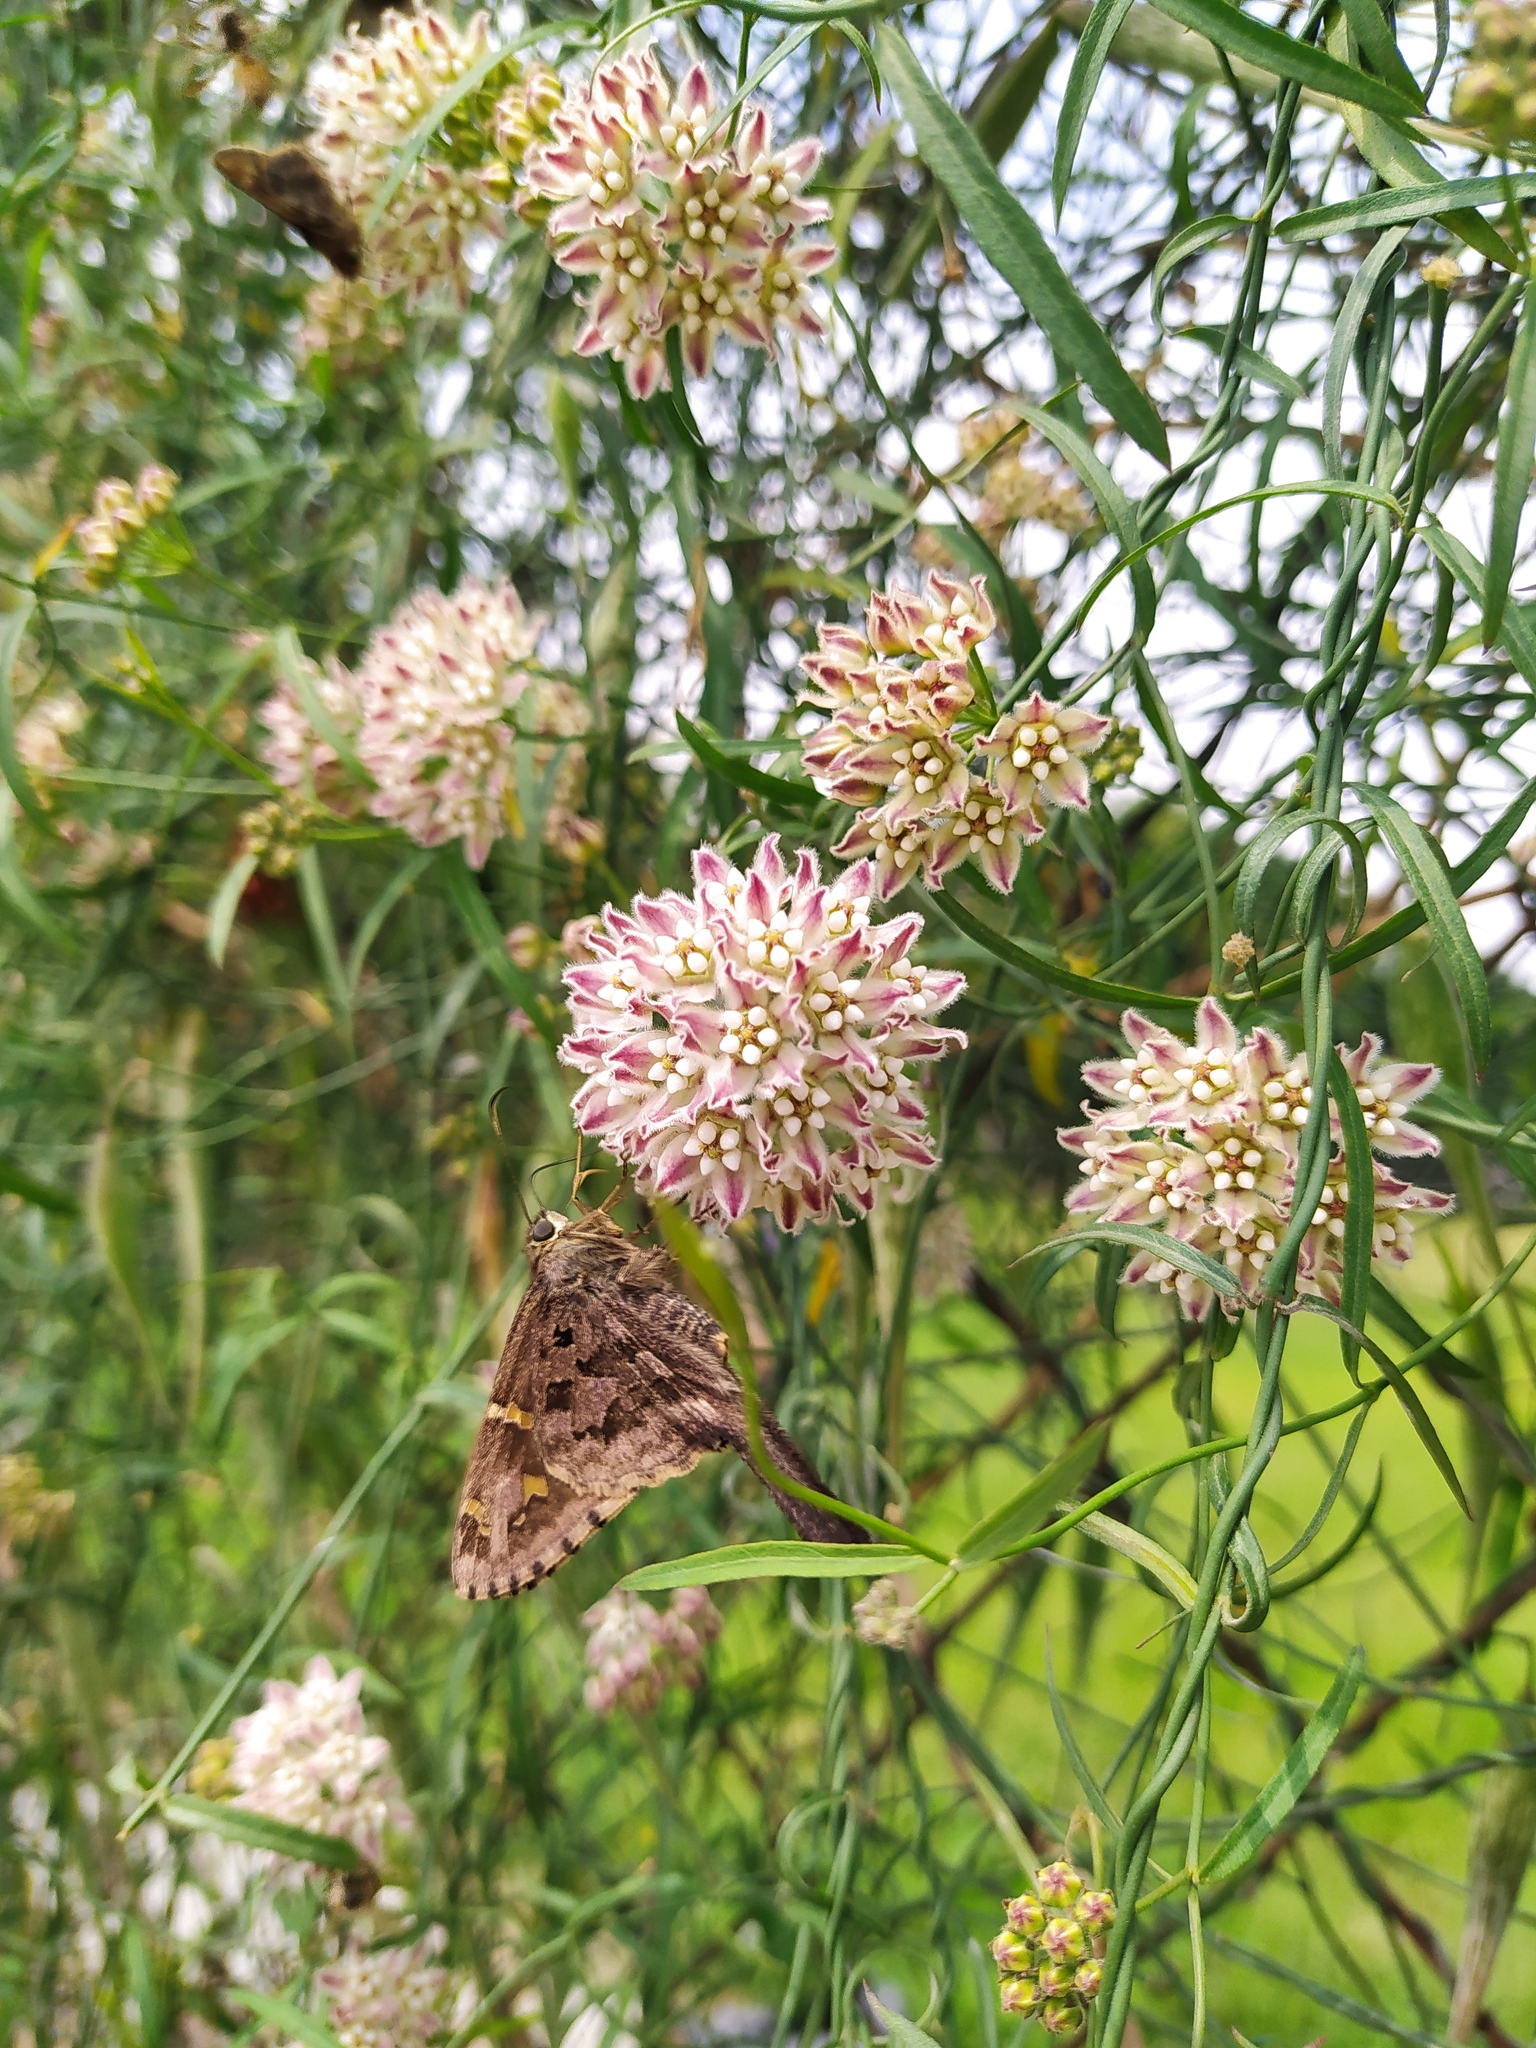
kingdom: Animalia
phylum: Arthropoda
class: Insecta
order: Lepidoptera
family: Hesperiidae
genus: Thorybes
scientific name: Thorybes
